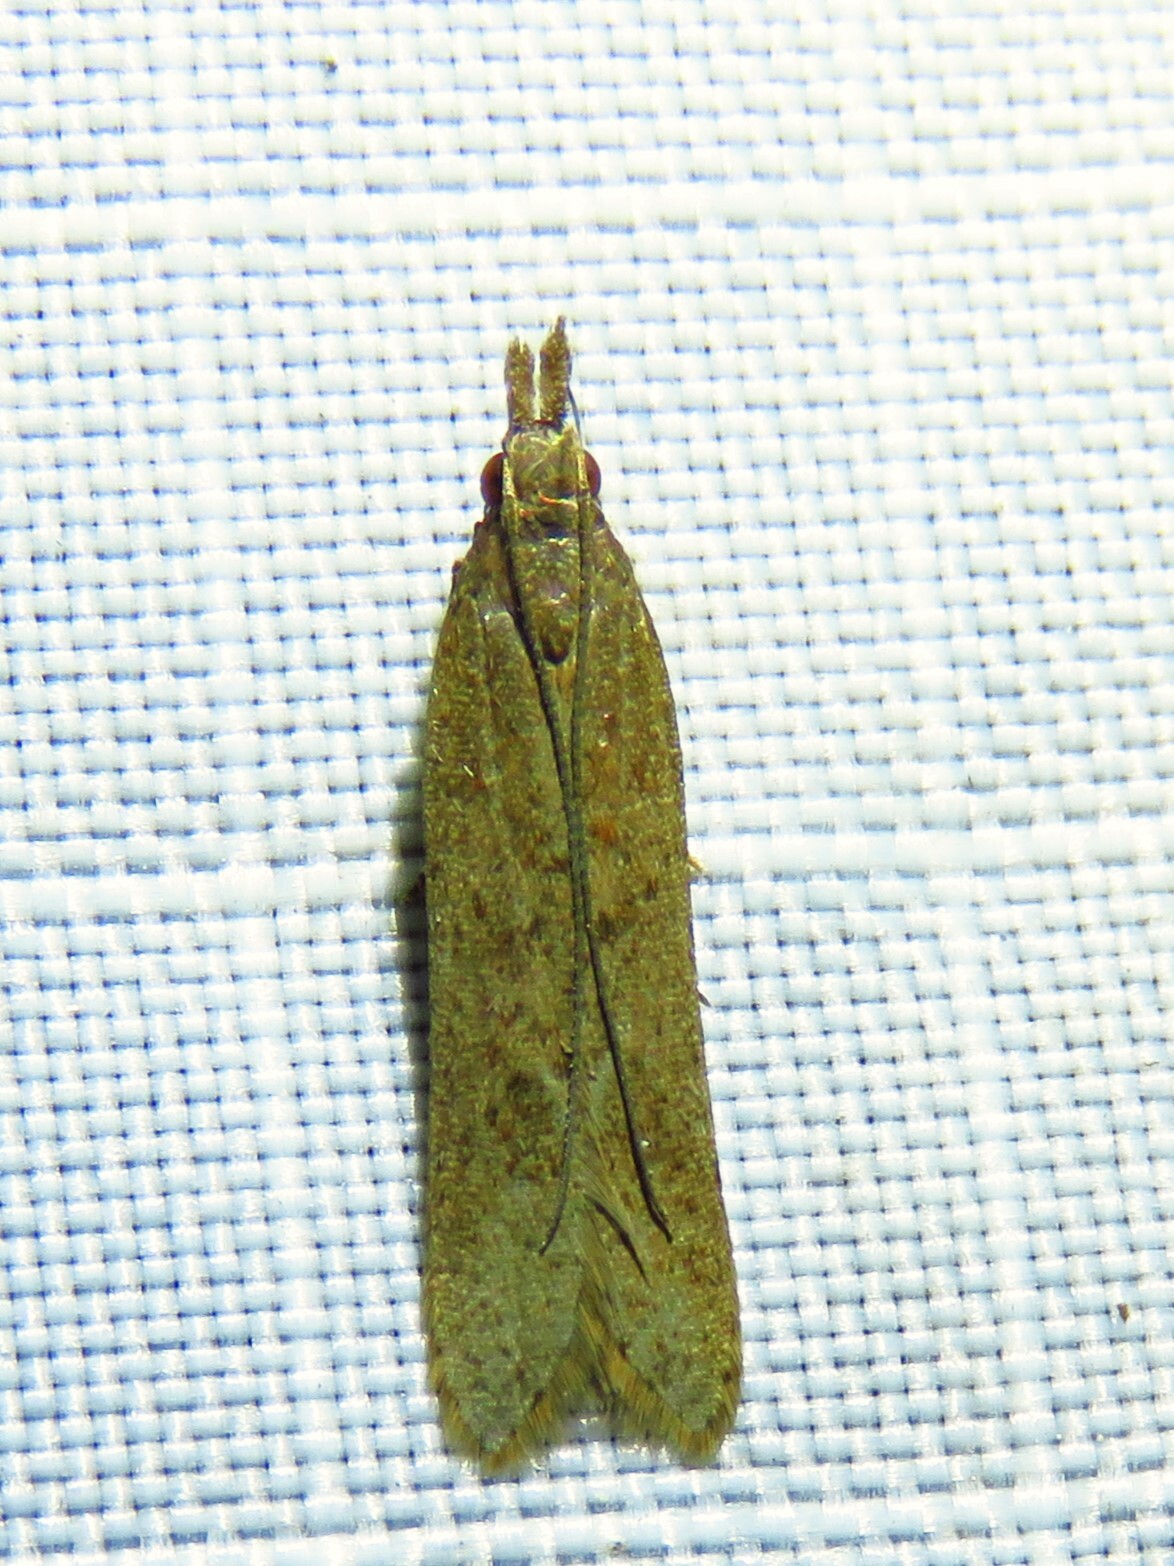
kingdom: Animalia
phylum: Arthropoda
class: Insecta
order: Lepidoptera
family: Gelechiidae
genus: Dichomeris
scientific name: Dichomeris ligulella
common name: Moth
